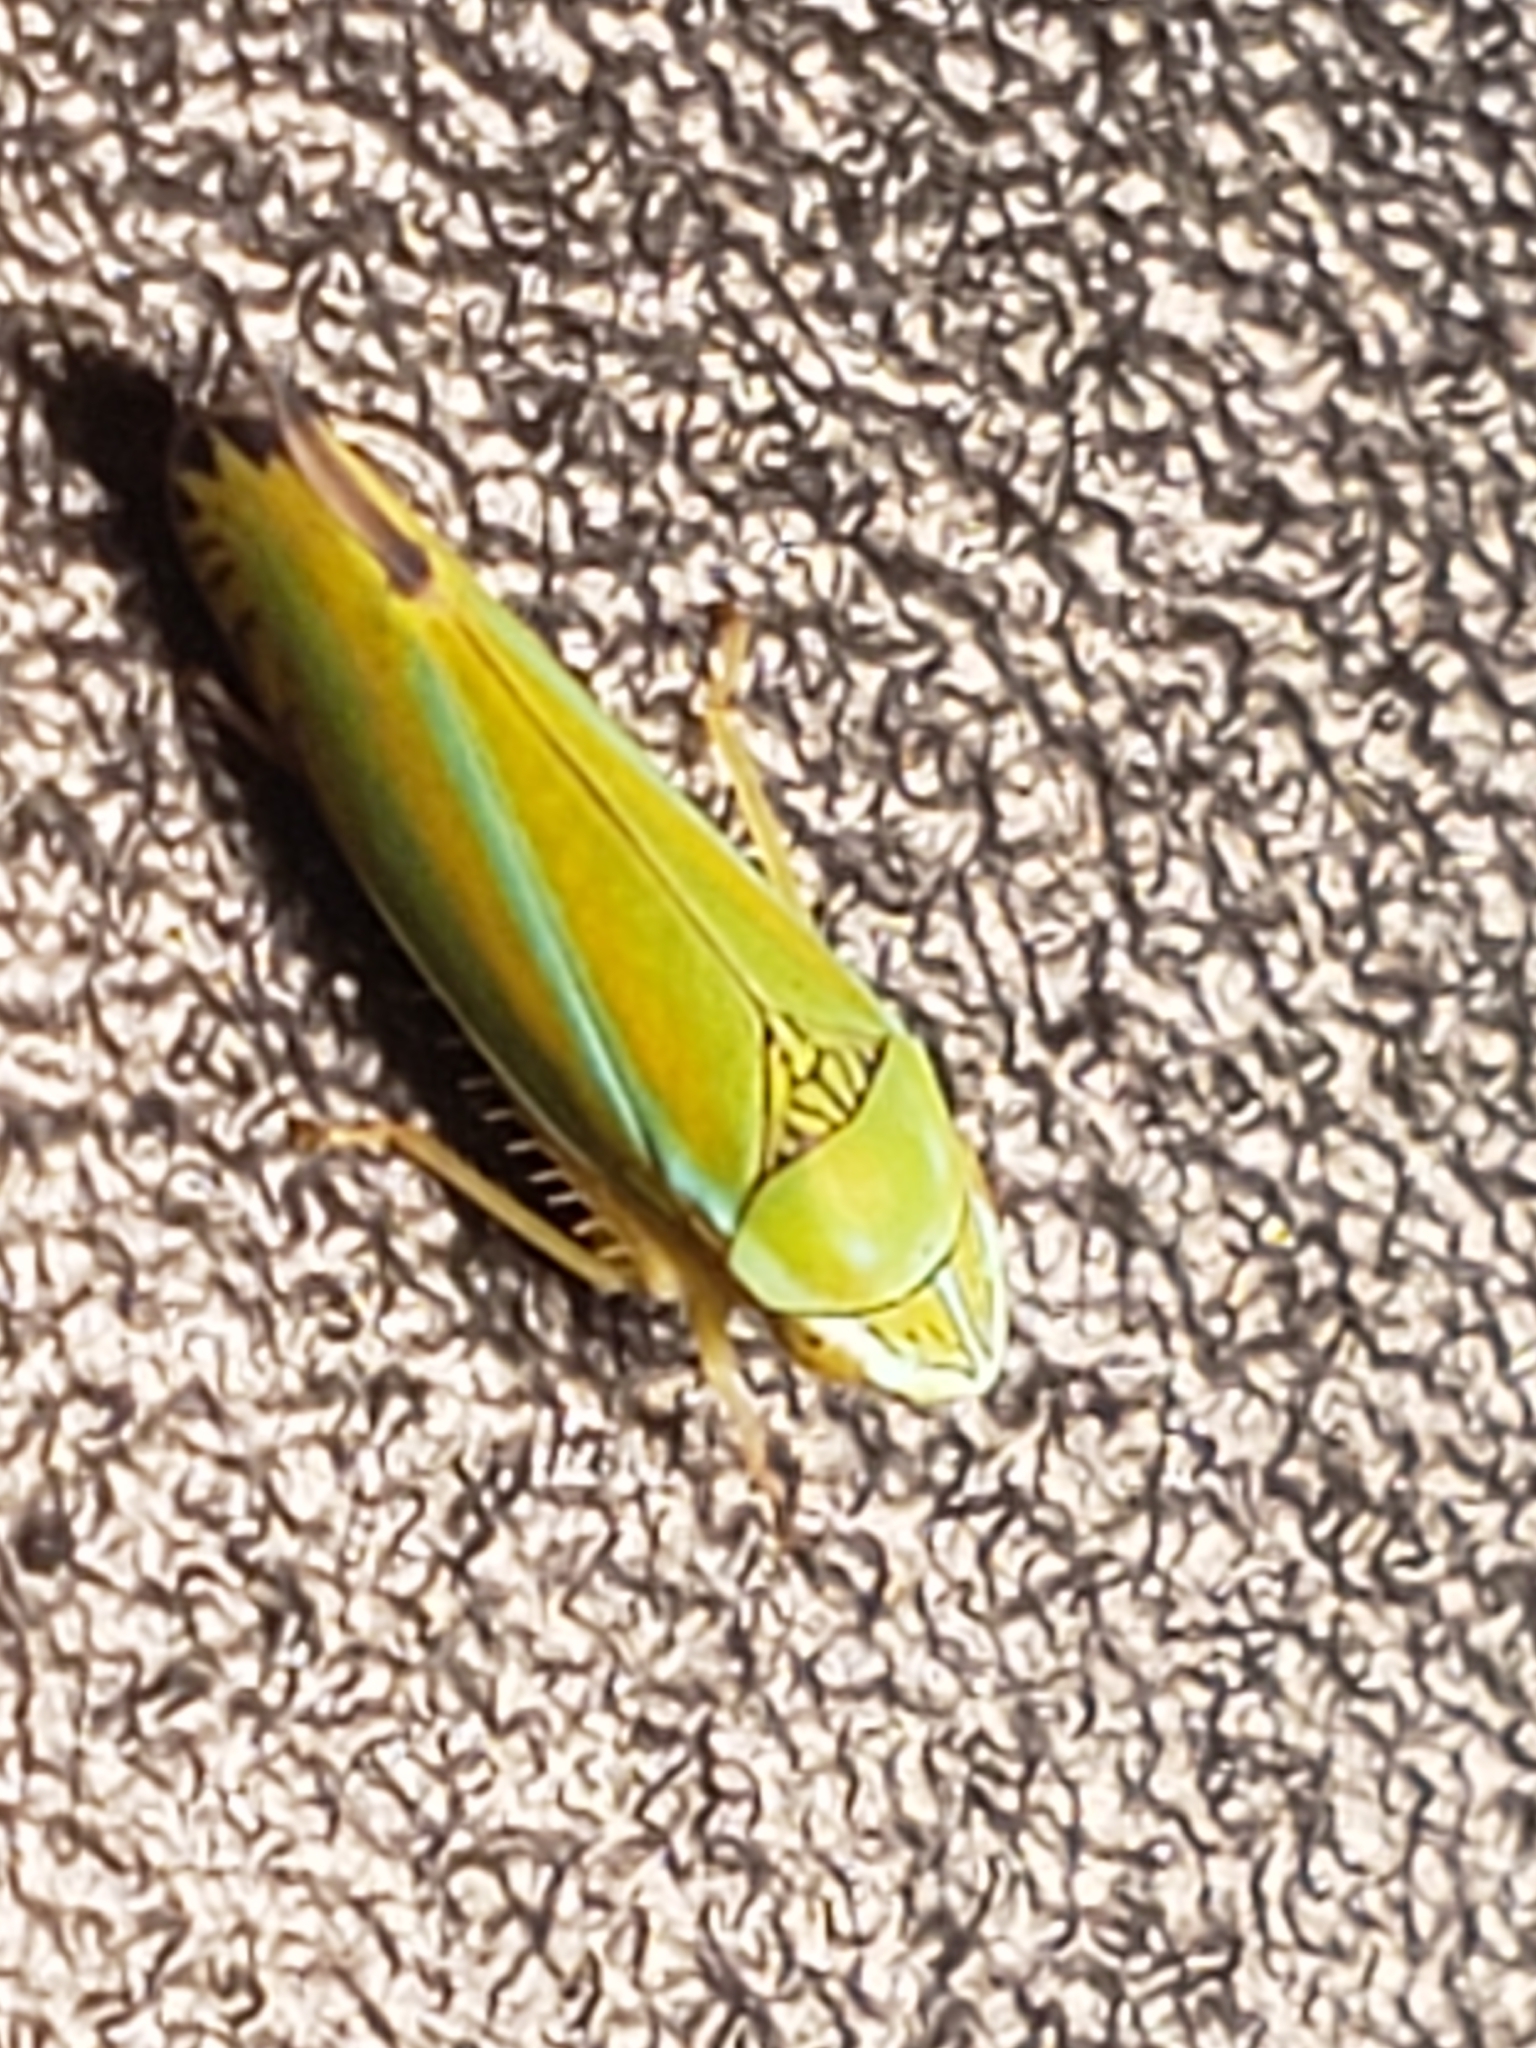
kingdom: Animalia
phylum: Arthropoda
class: Insecta
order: Hemiptera
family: Cicadellidae
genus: Graphocephala
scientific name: Graphocephala versuta
